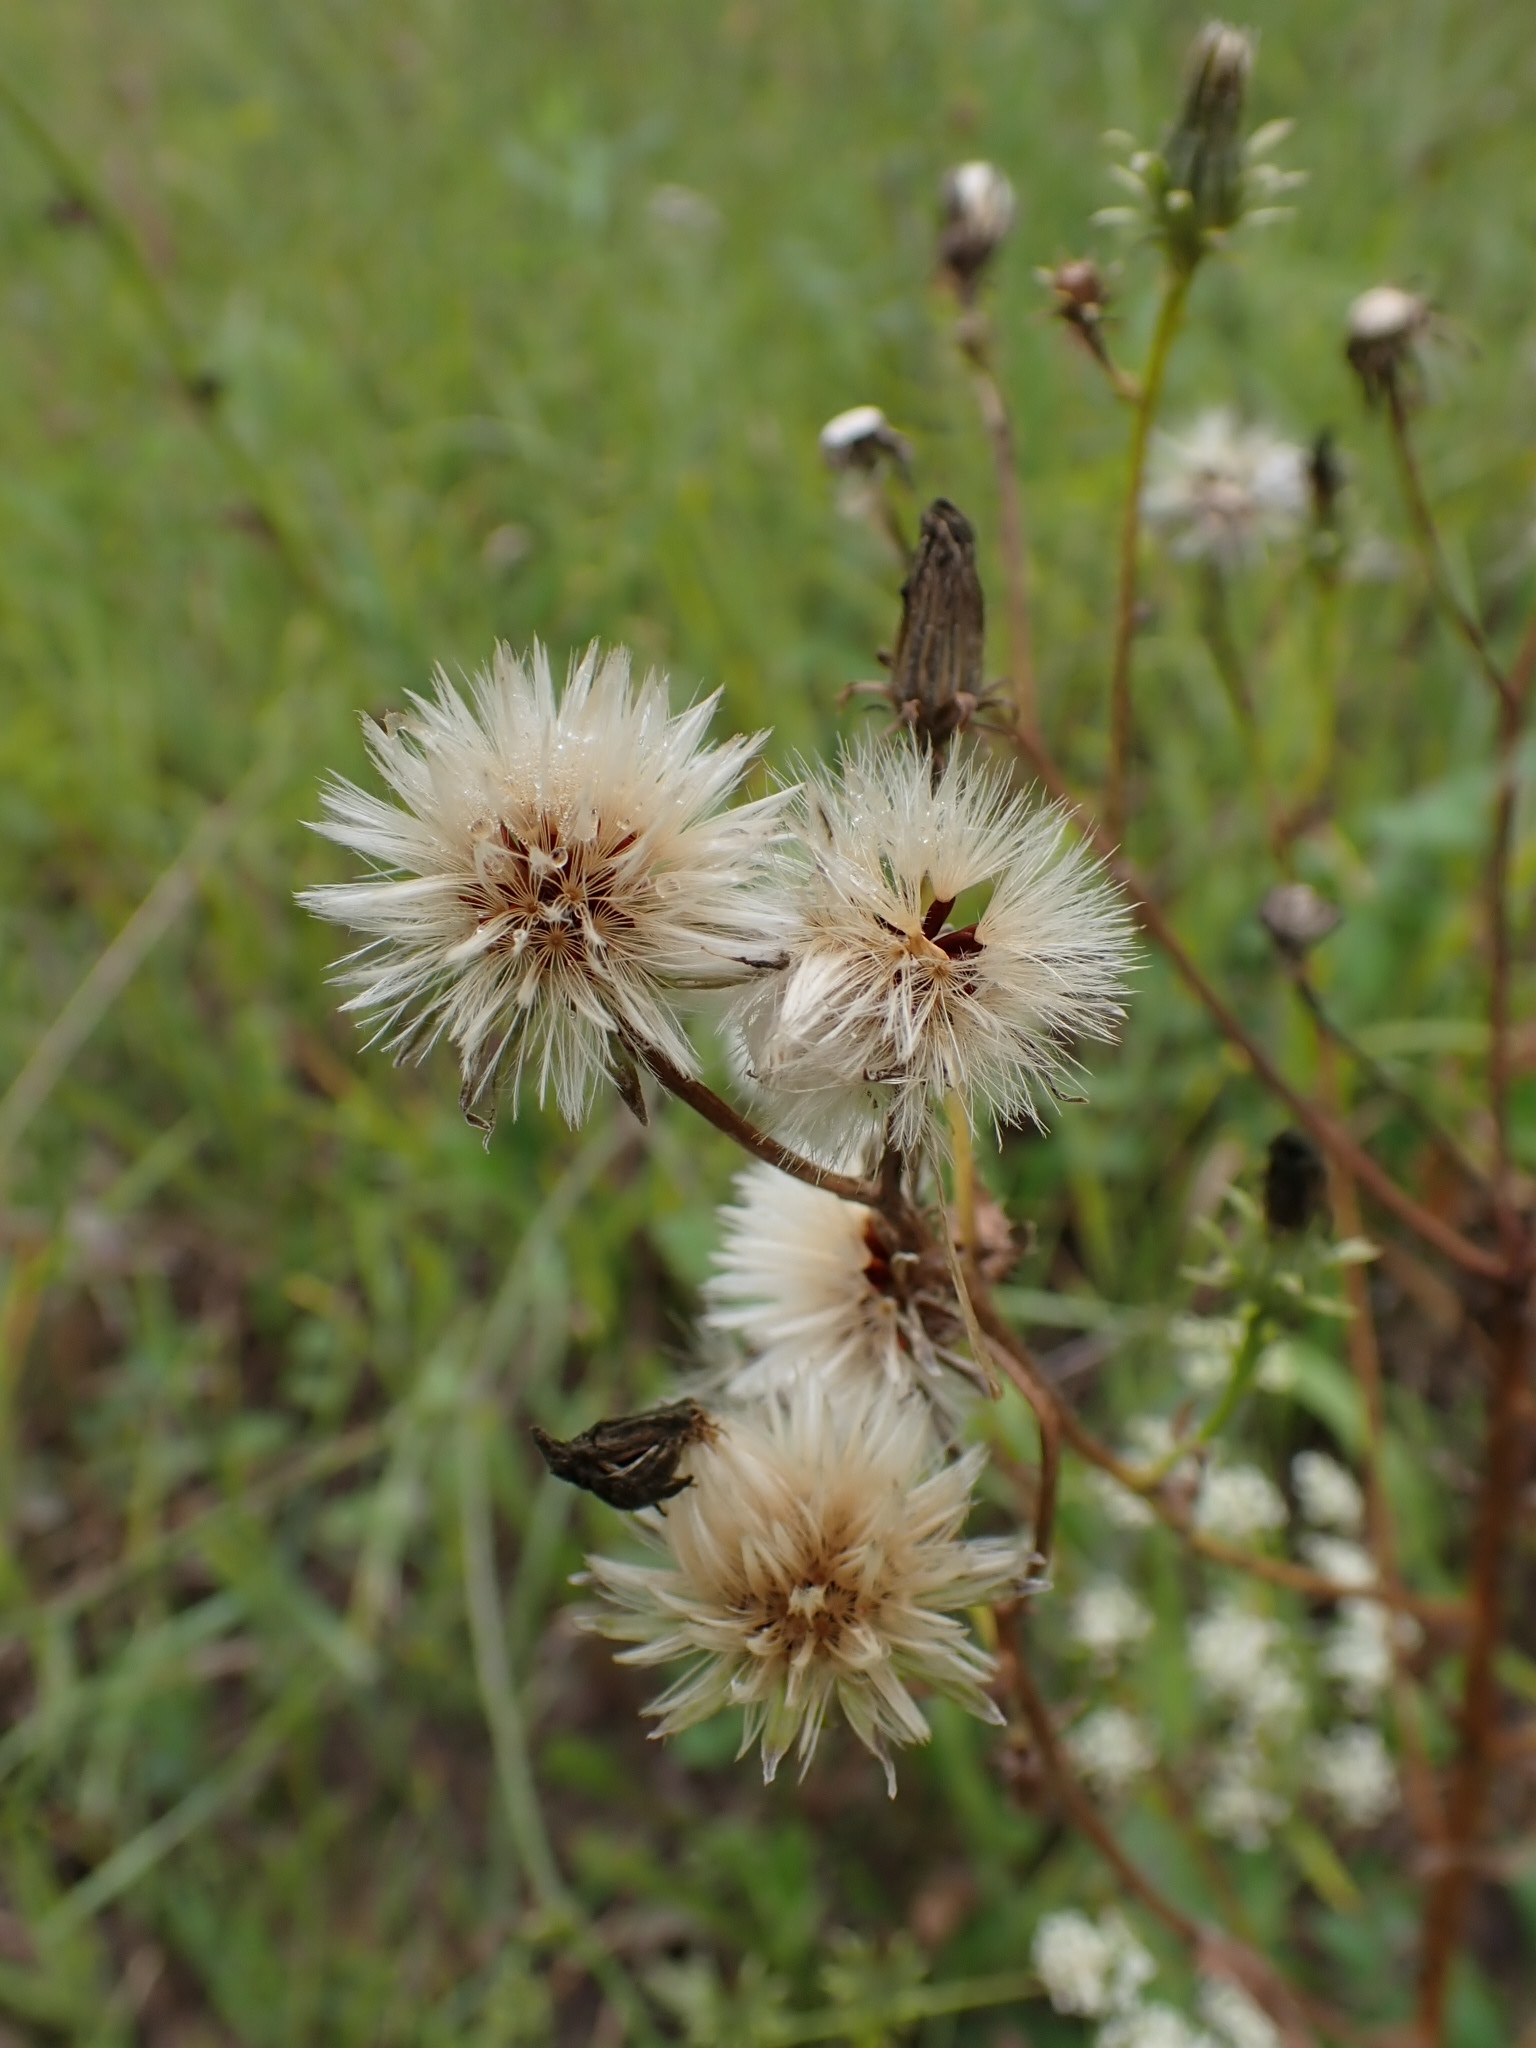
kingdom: Plantae
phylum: Tracheophyta
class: Magnoliopsida
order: Asterales
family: Asteraceae
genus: Picris
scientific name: Picris hieracioides
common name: Hawkweed oxtongue
